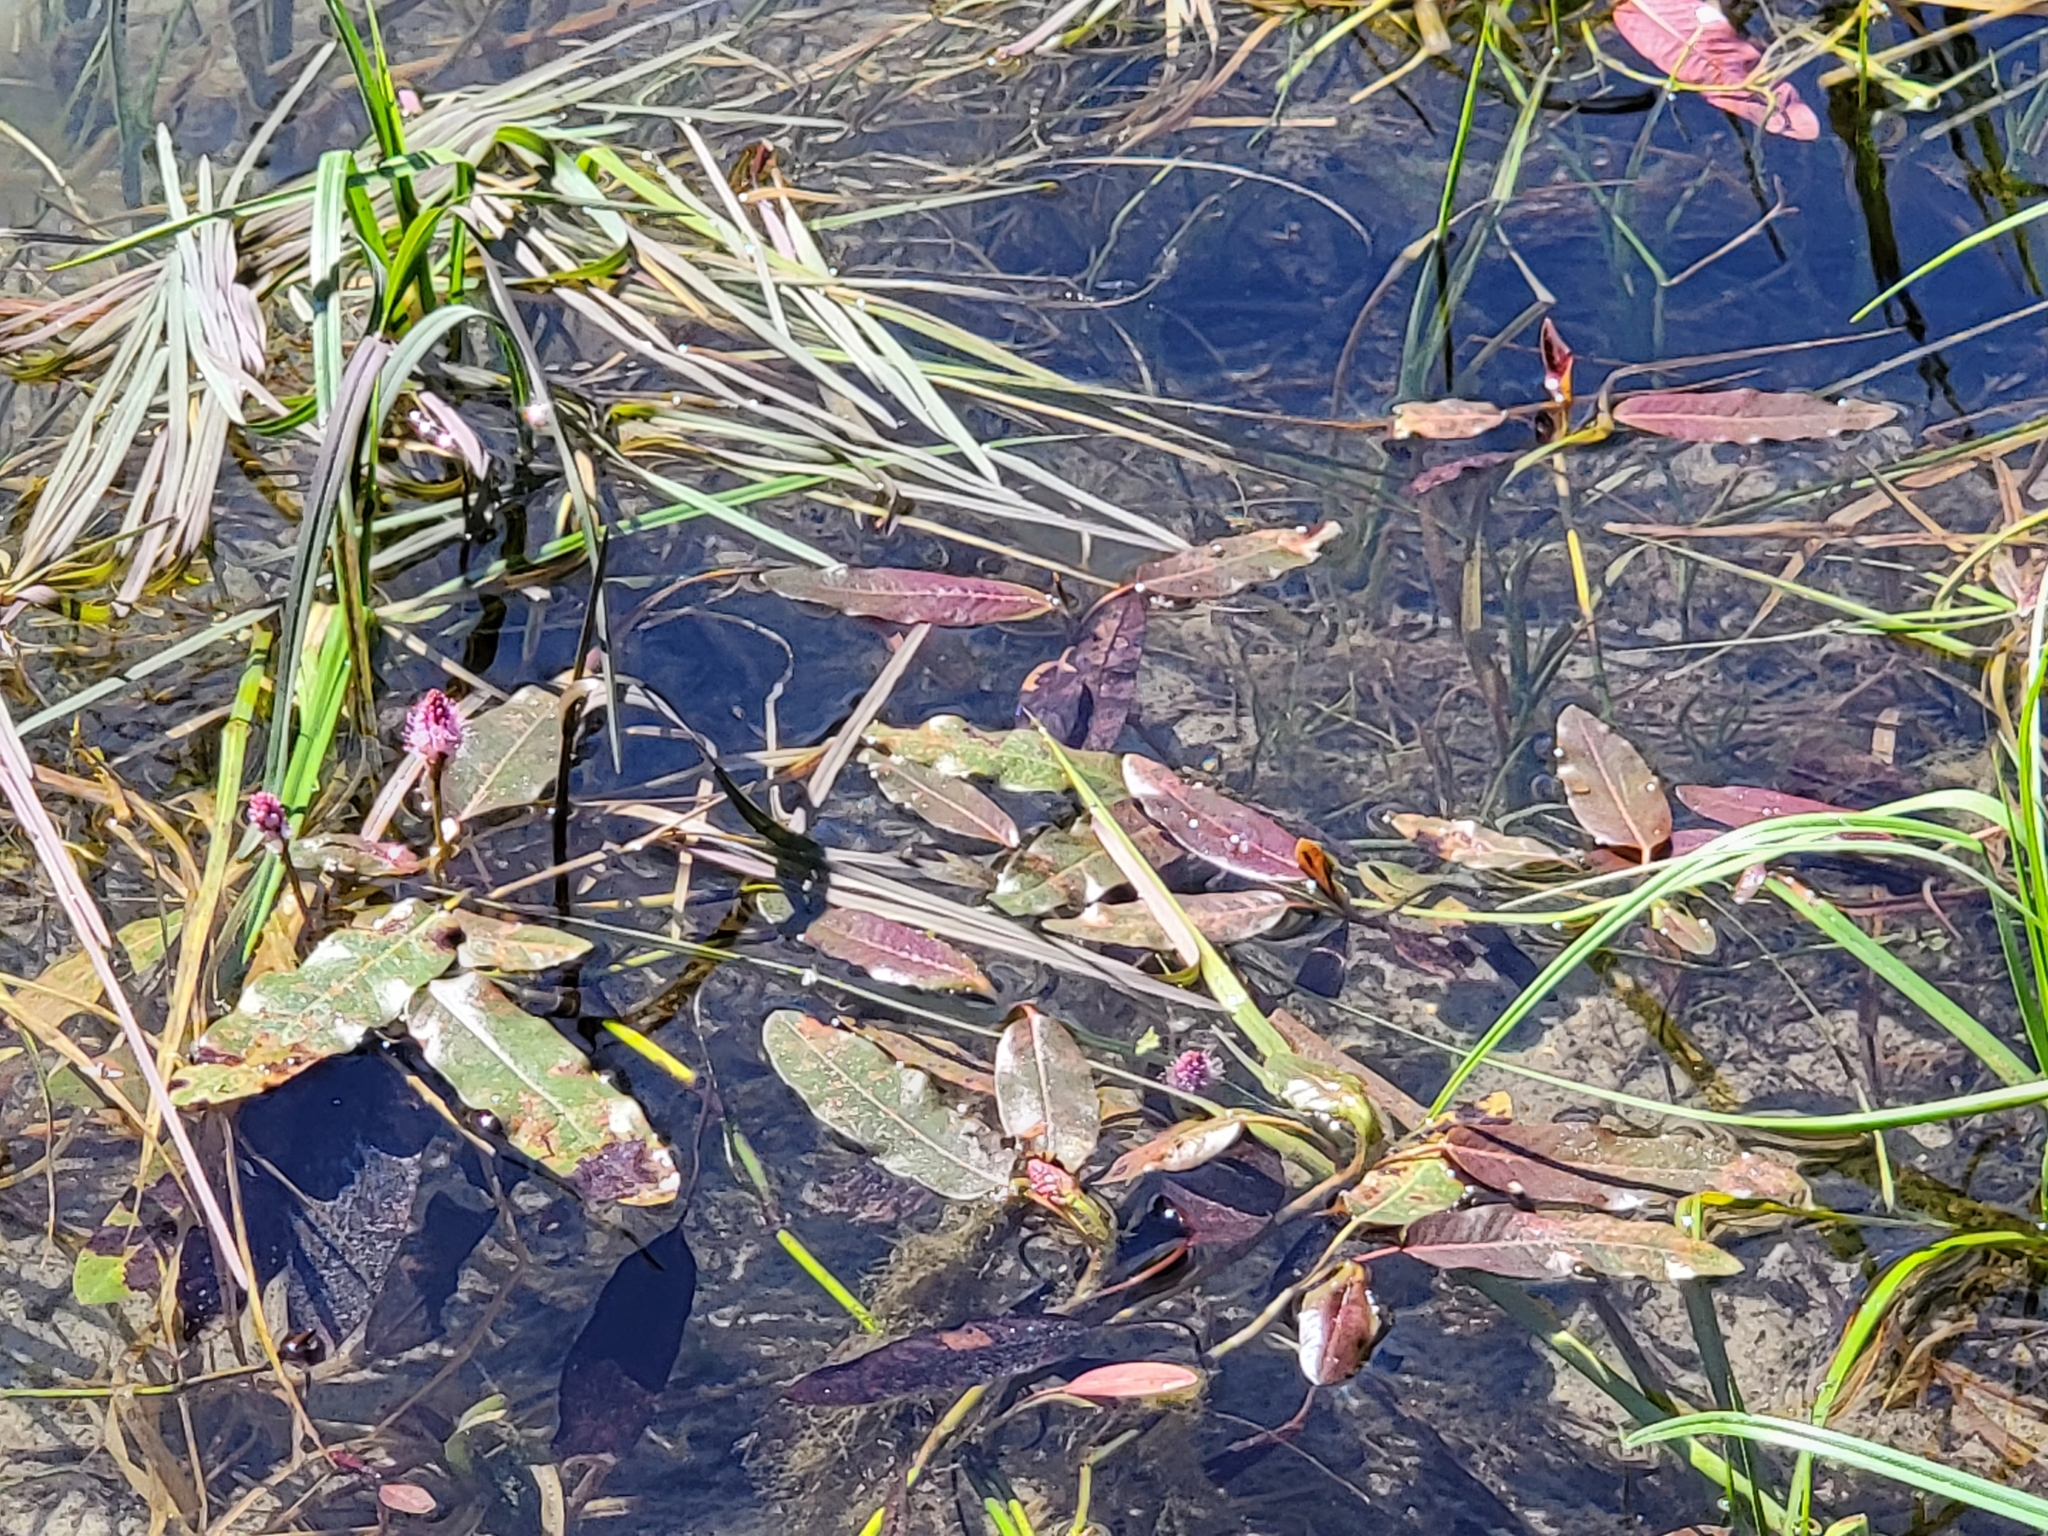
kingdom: Plantae
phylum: Tracheophyta
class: Magnoliopsida
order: Caryophyllales
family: Polygonaceae
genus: Persicaria
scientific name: Persicaria amphibia
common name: Amphibious bistort
